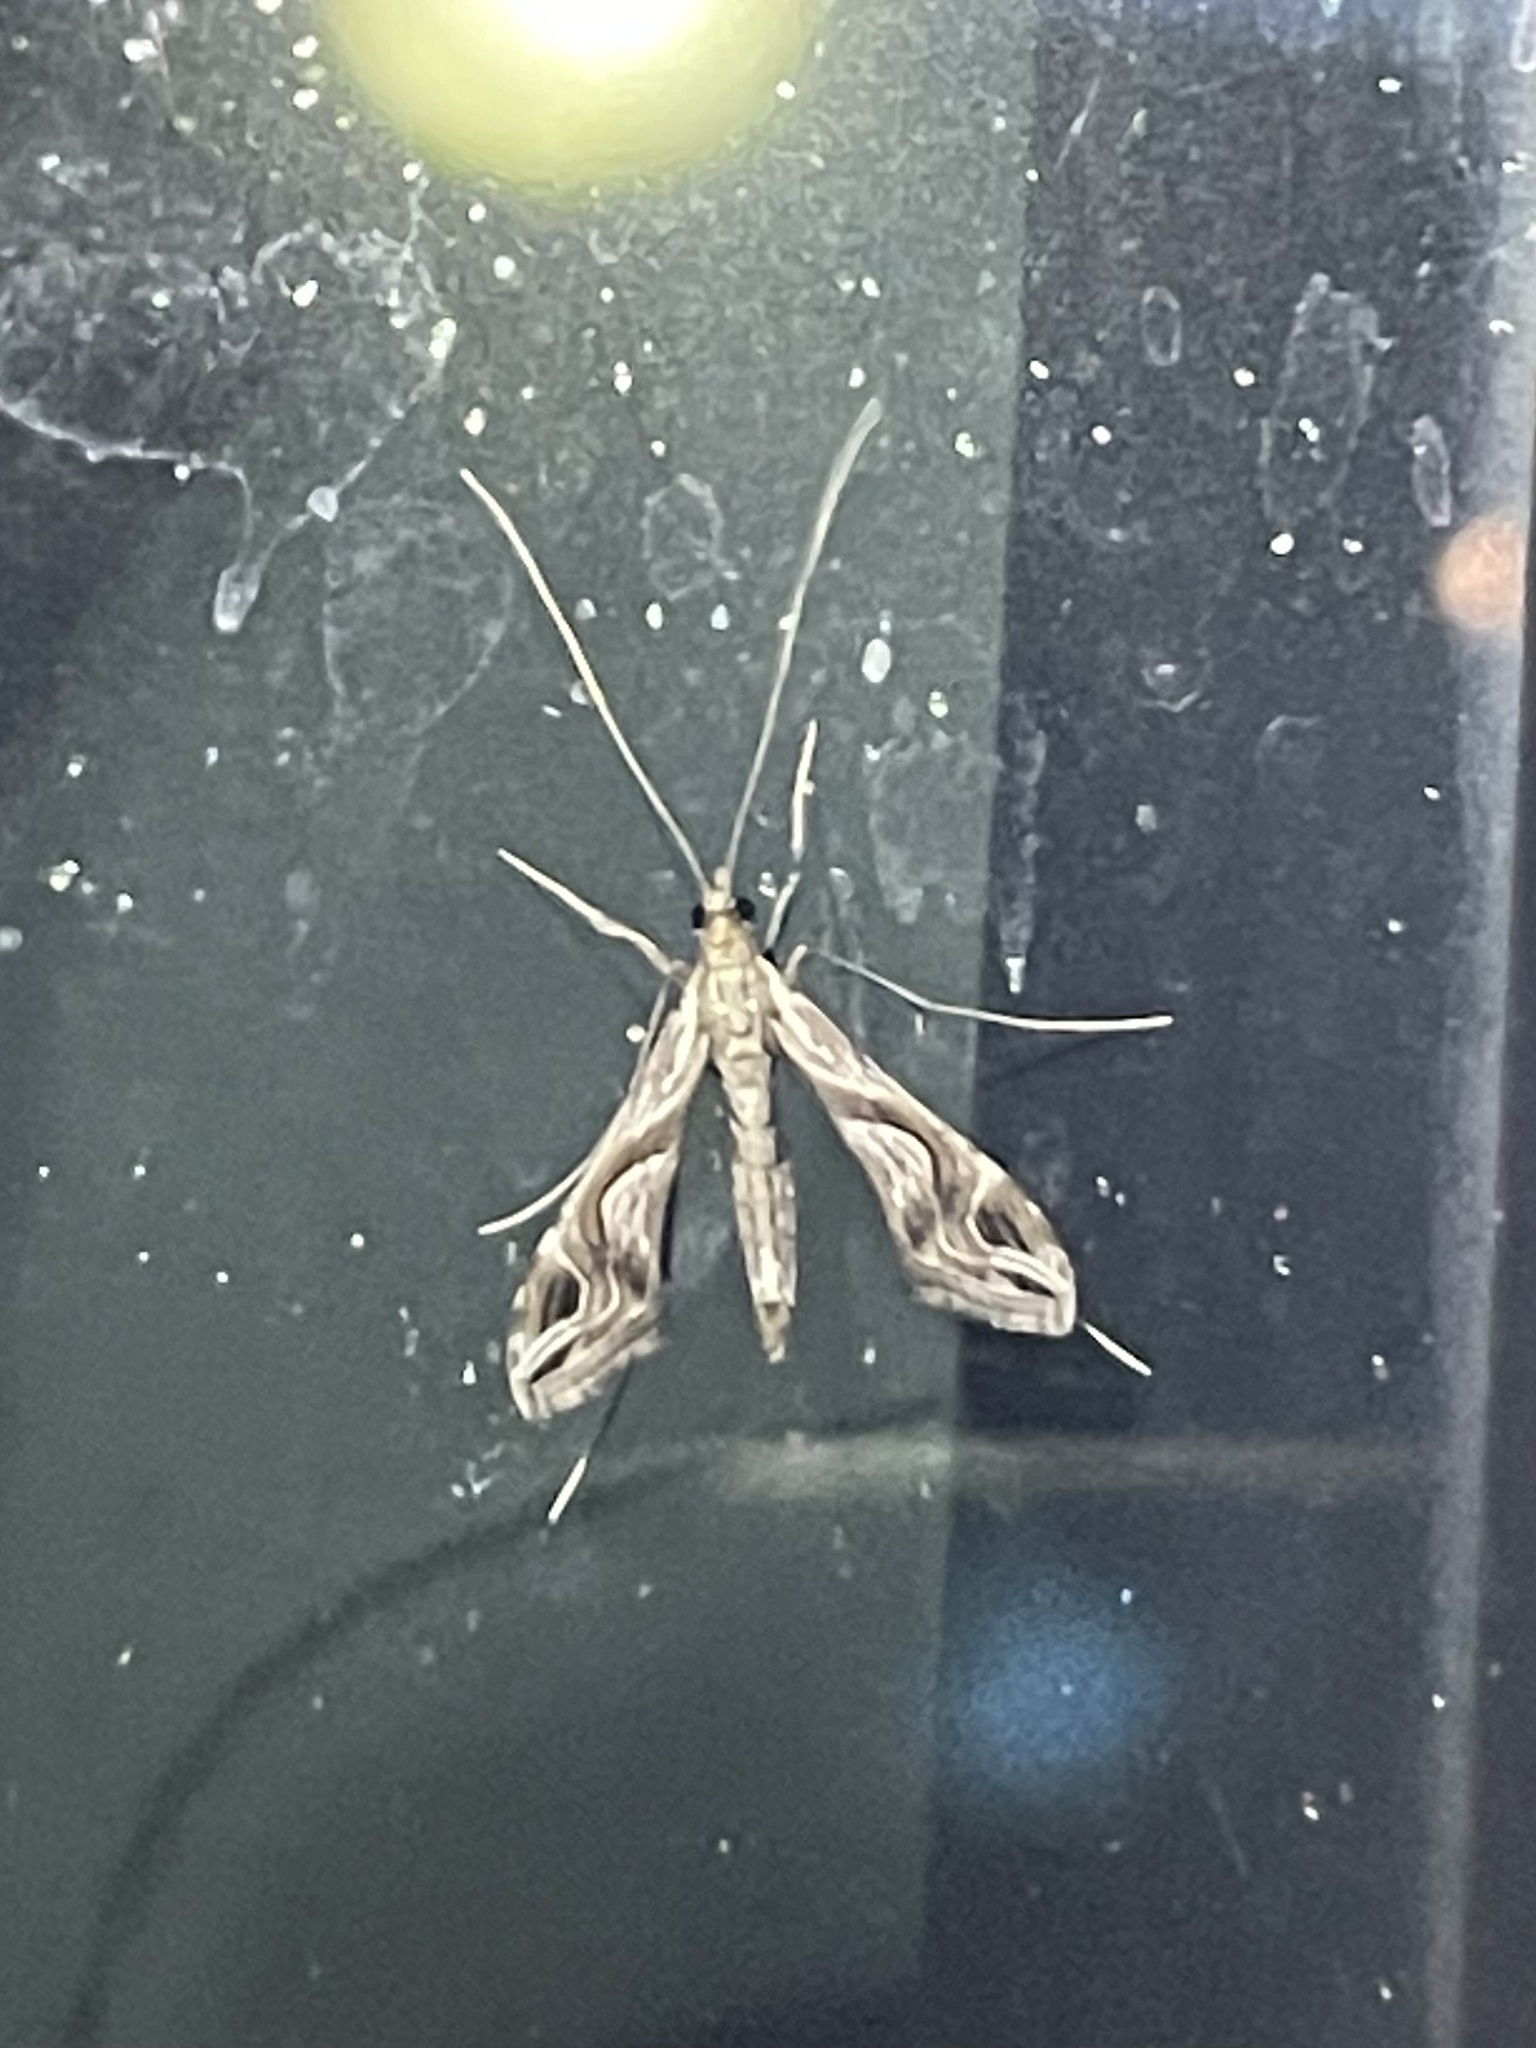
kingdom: Animalia
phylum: Arthropoda
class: Insecta
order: Lepidoptera
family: Crambidae
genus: Lineodes
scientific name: Lineodes integra
